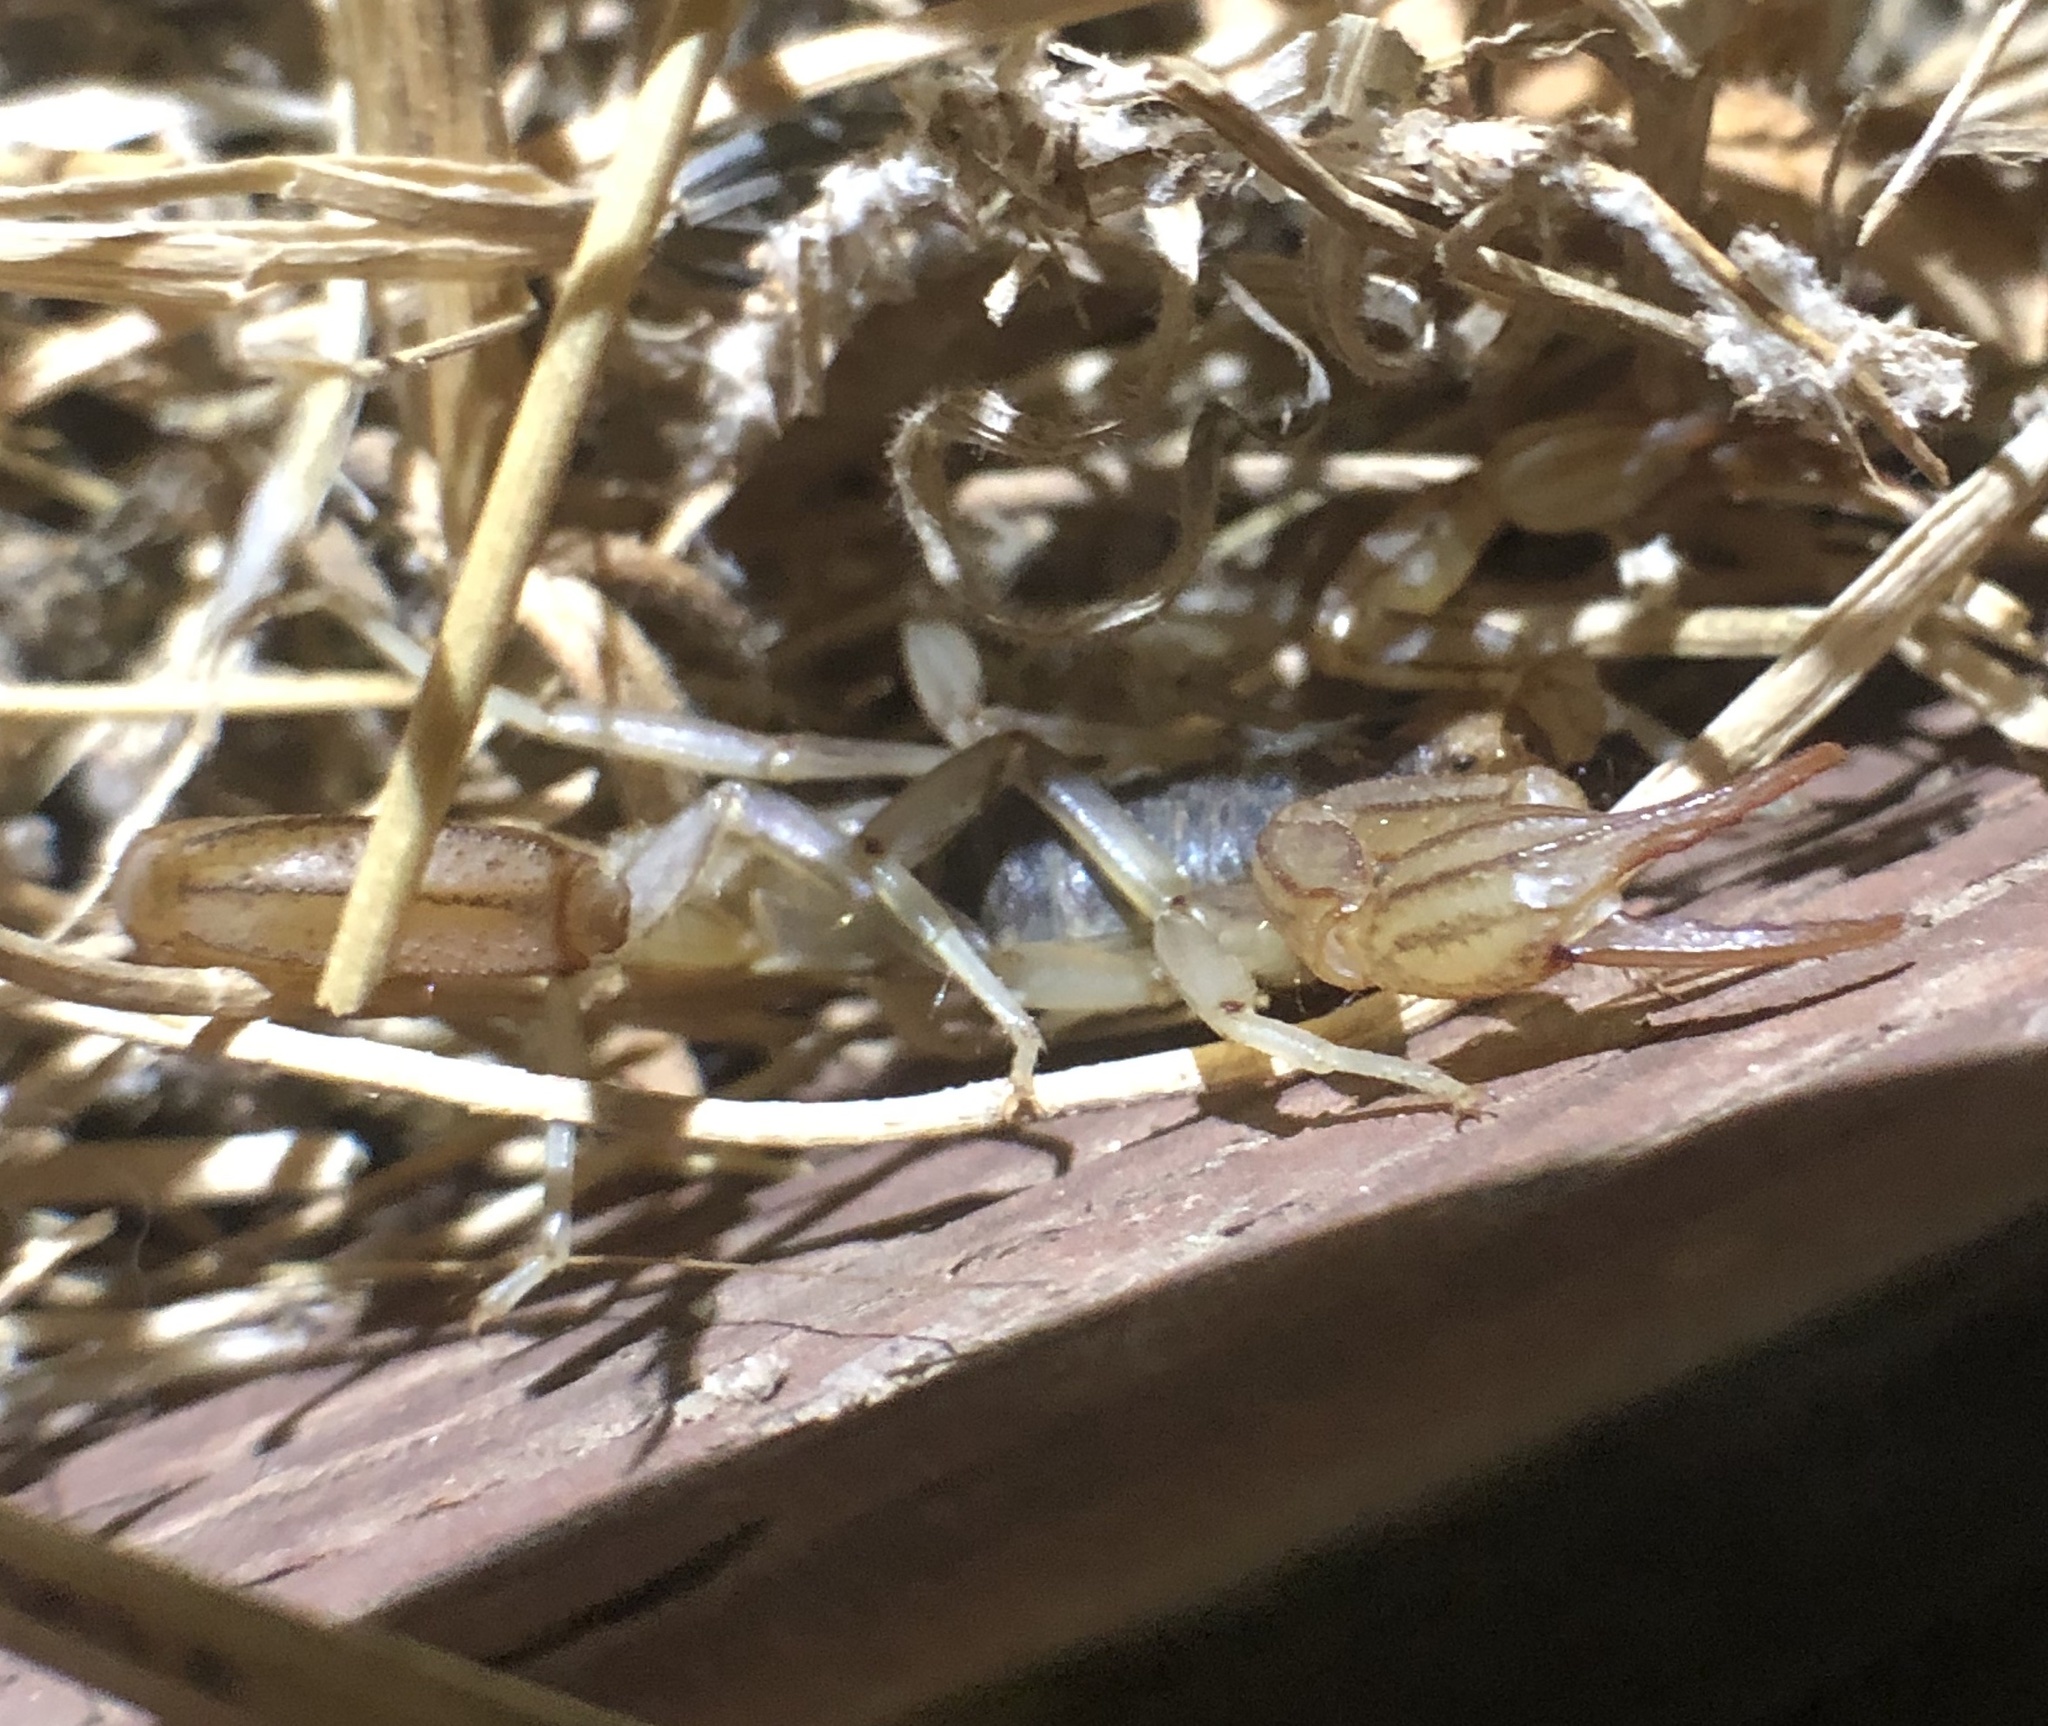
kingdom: Animalia
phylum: Arthropoda
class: Arachnida
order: Scorpiones
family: Vaejovidae
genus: Paruroctonus
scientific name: Paruroctonus silvestrii
